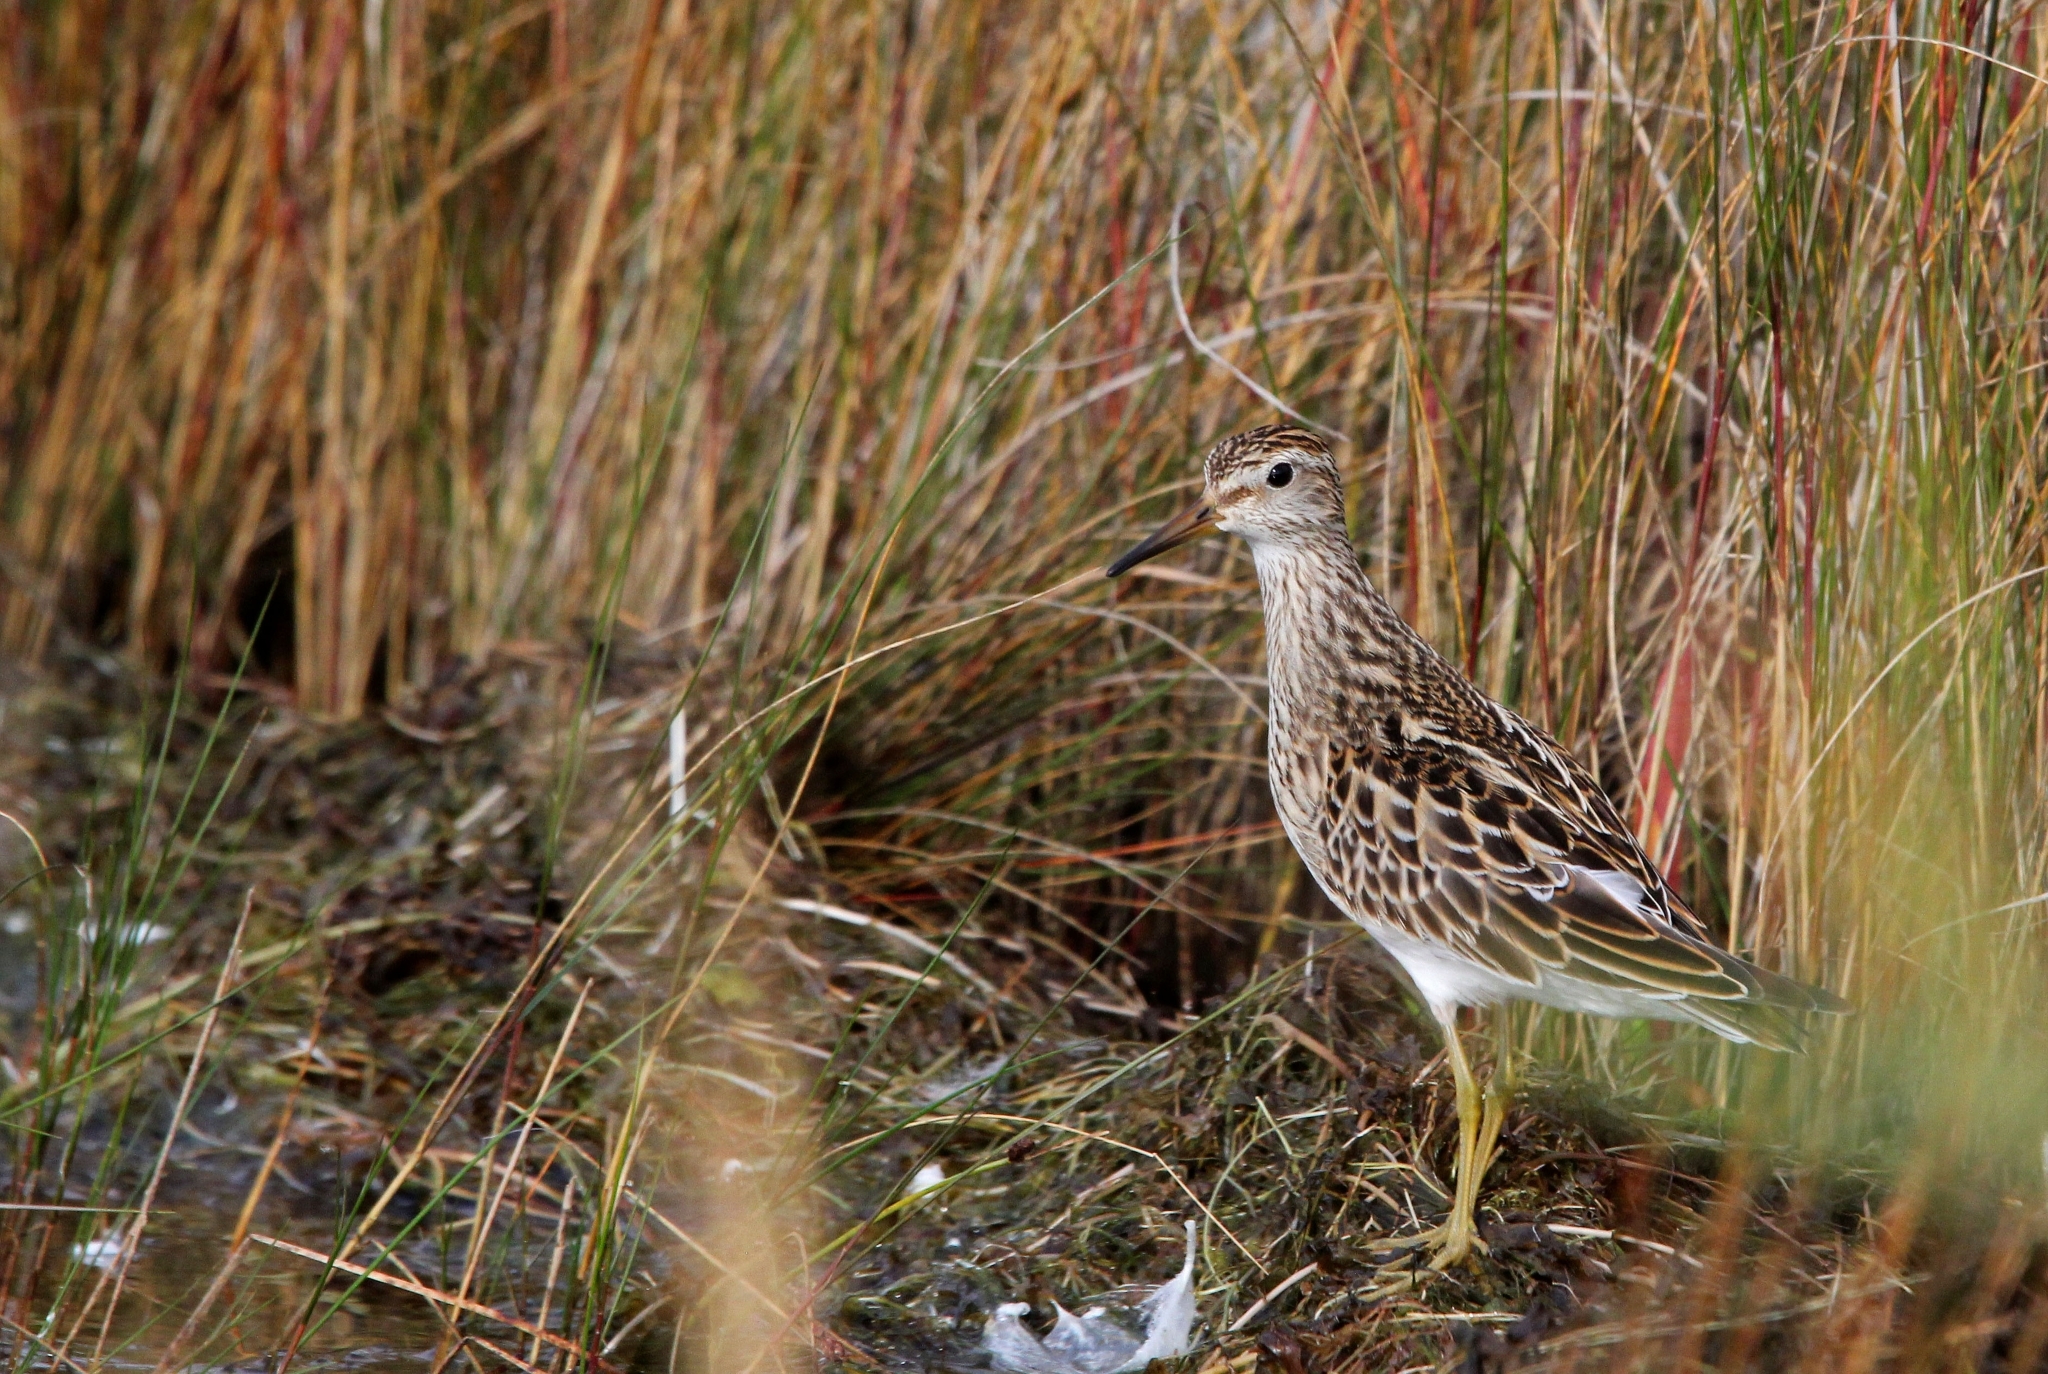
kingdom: Animalia
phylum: Chordata
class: Aves
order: Charadriiformes
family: Scolopacidae
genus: Calidris
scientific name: Calidris melanotos
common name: Pectoral sandpiper
